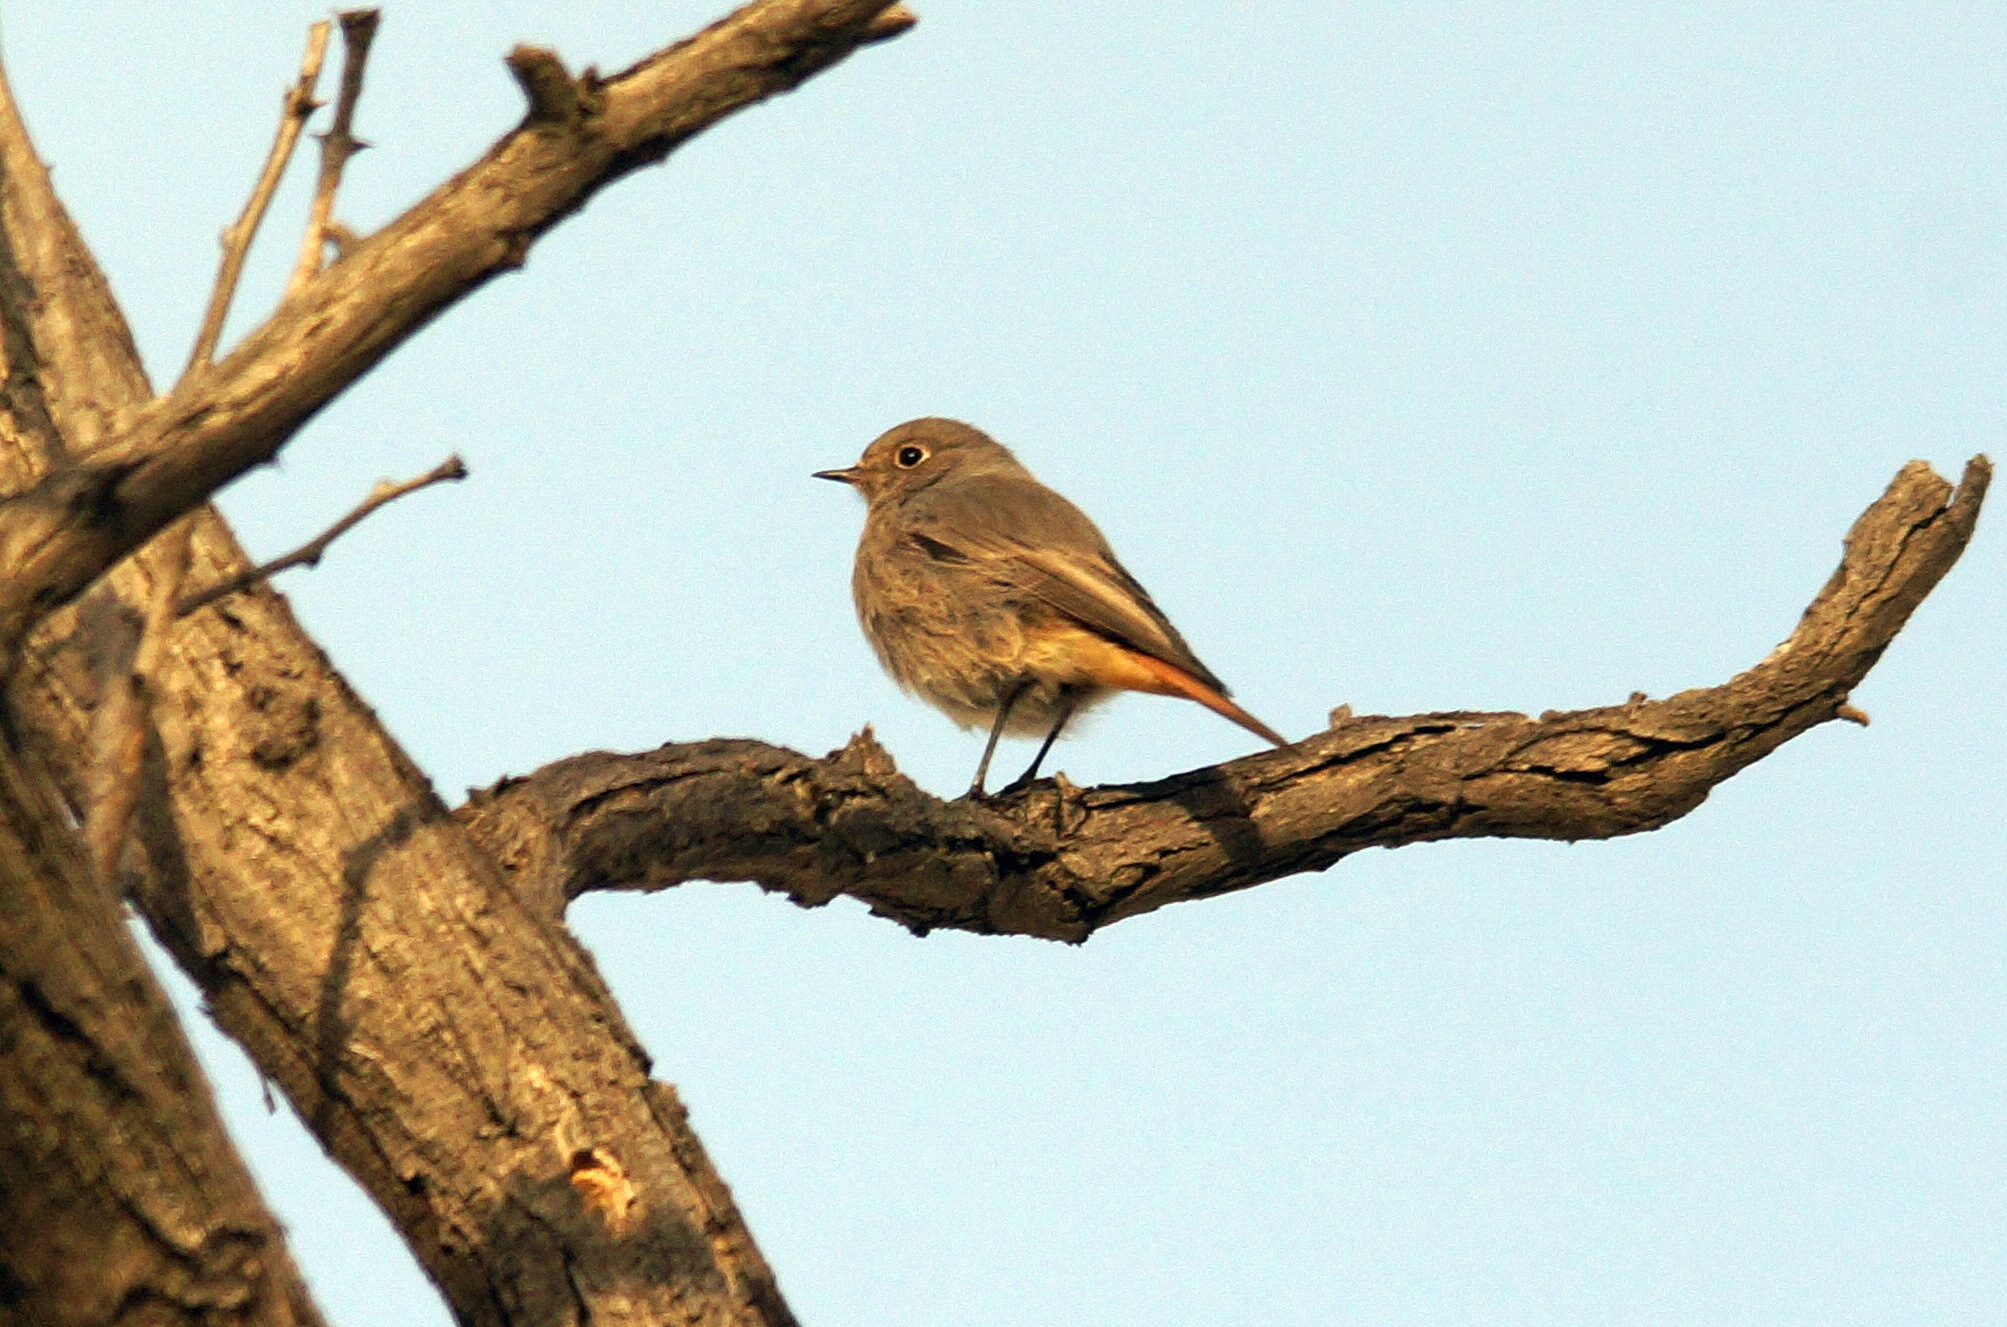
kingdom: Animalia
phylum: Chordata
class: Aves
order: Passeriformes
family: Muscicapidae
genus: Phoenicurus
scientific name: Phoenicurus ochruros
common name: Black redstart
